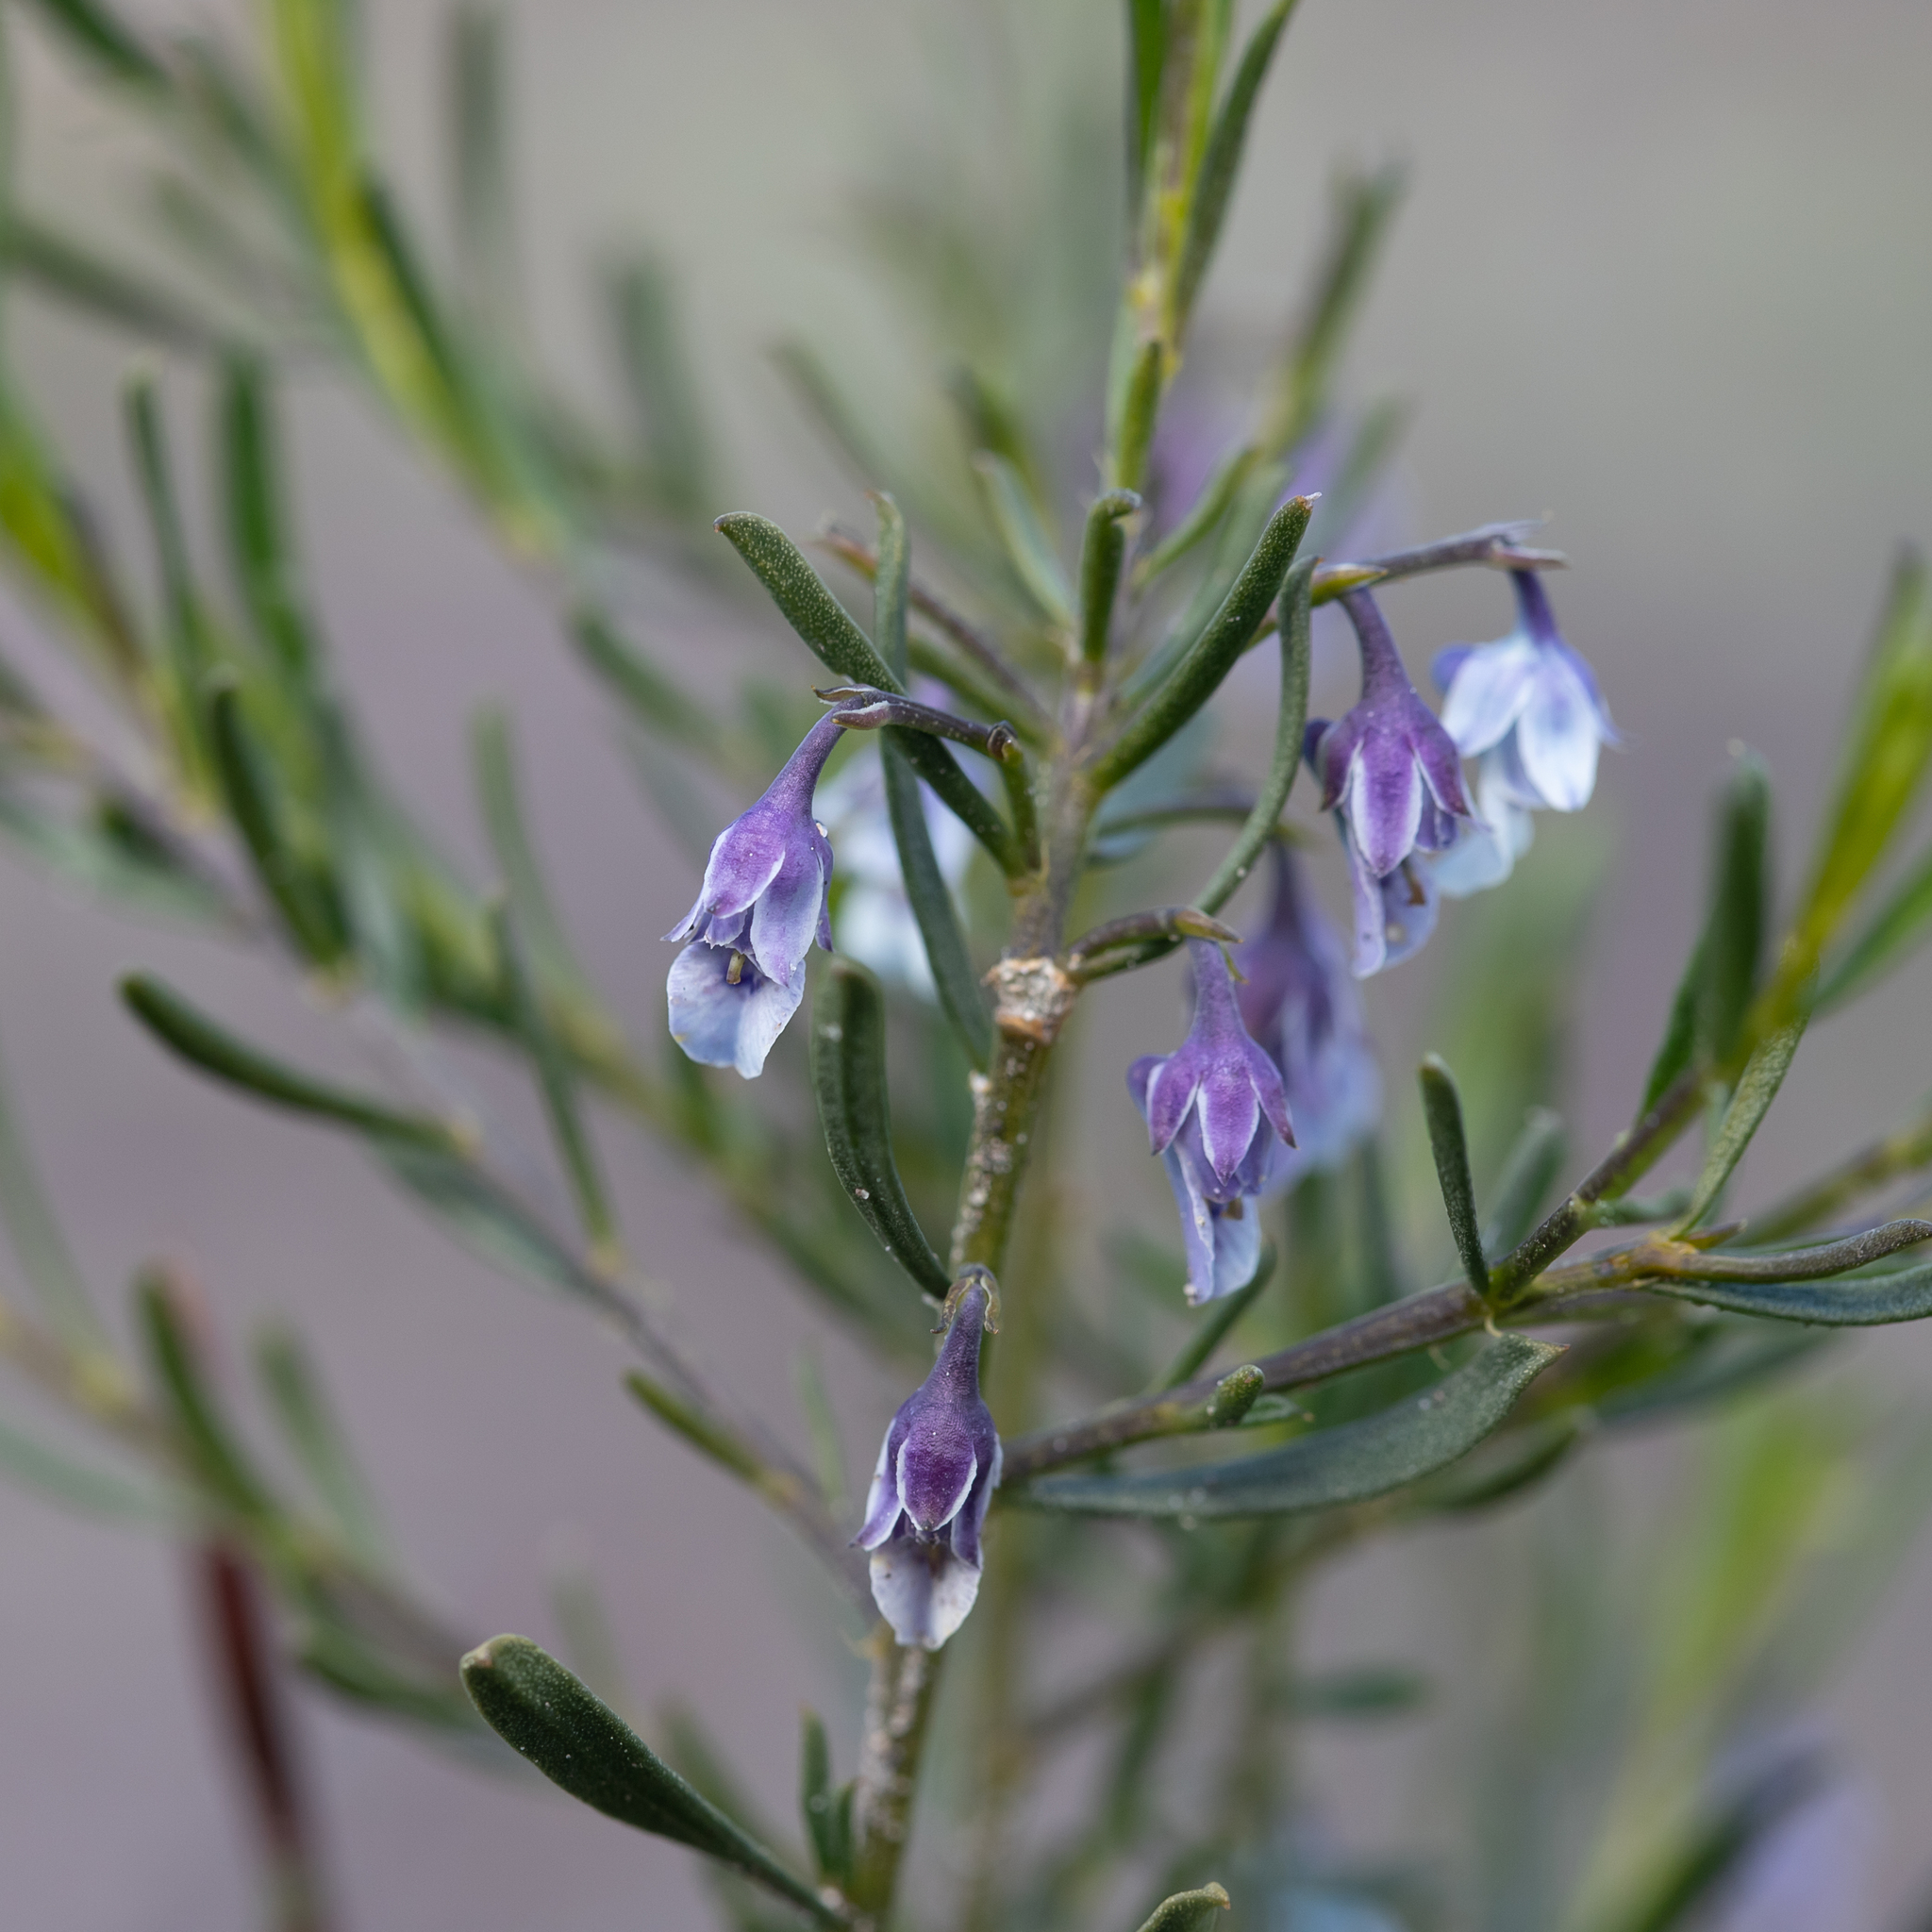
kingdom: Plantae
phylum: Tracheophyta
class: Magnoliopsida
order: Malpighiales
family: Violaceae
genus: Pigea
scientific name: Pigea floribunda
